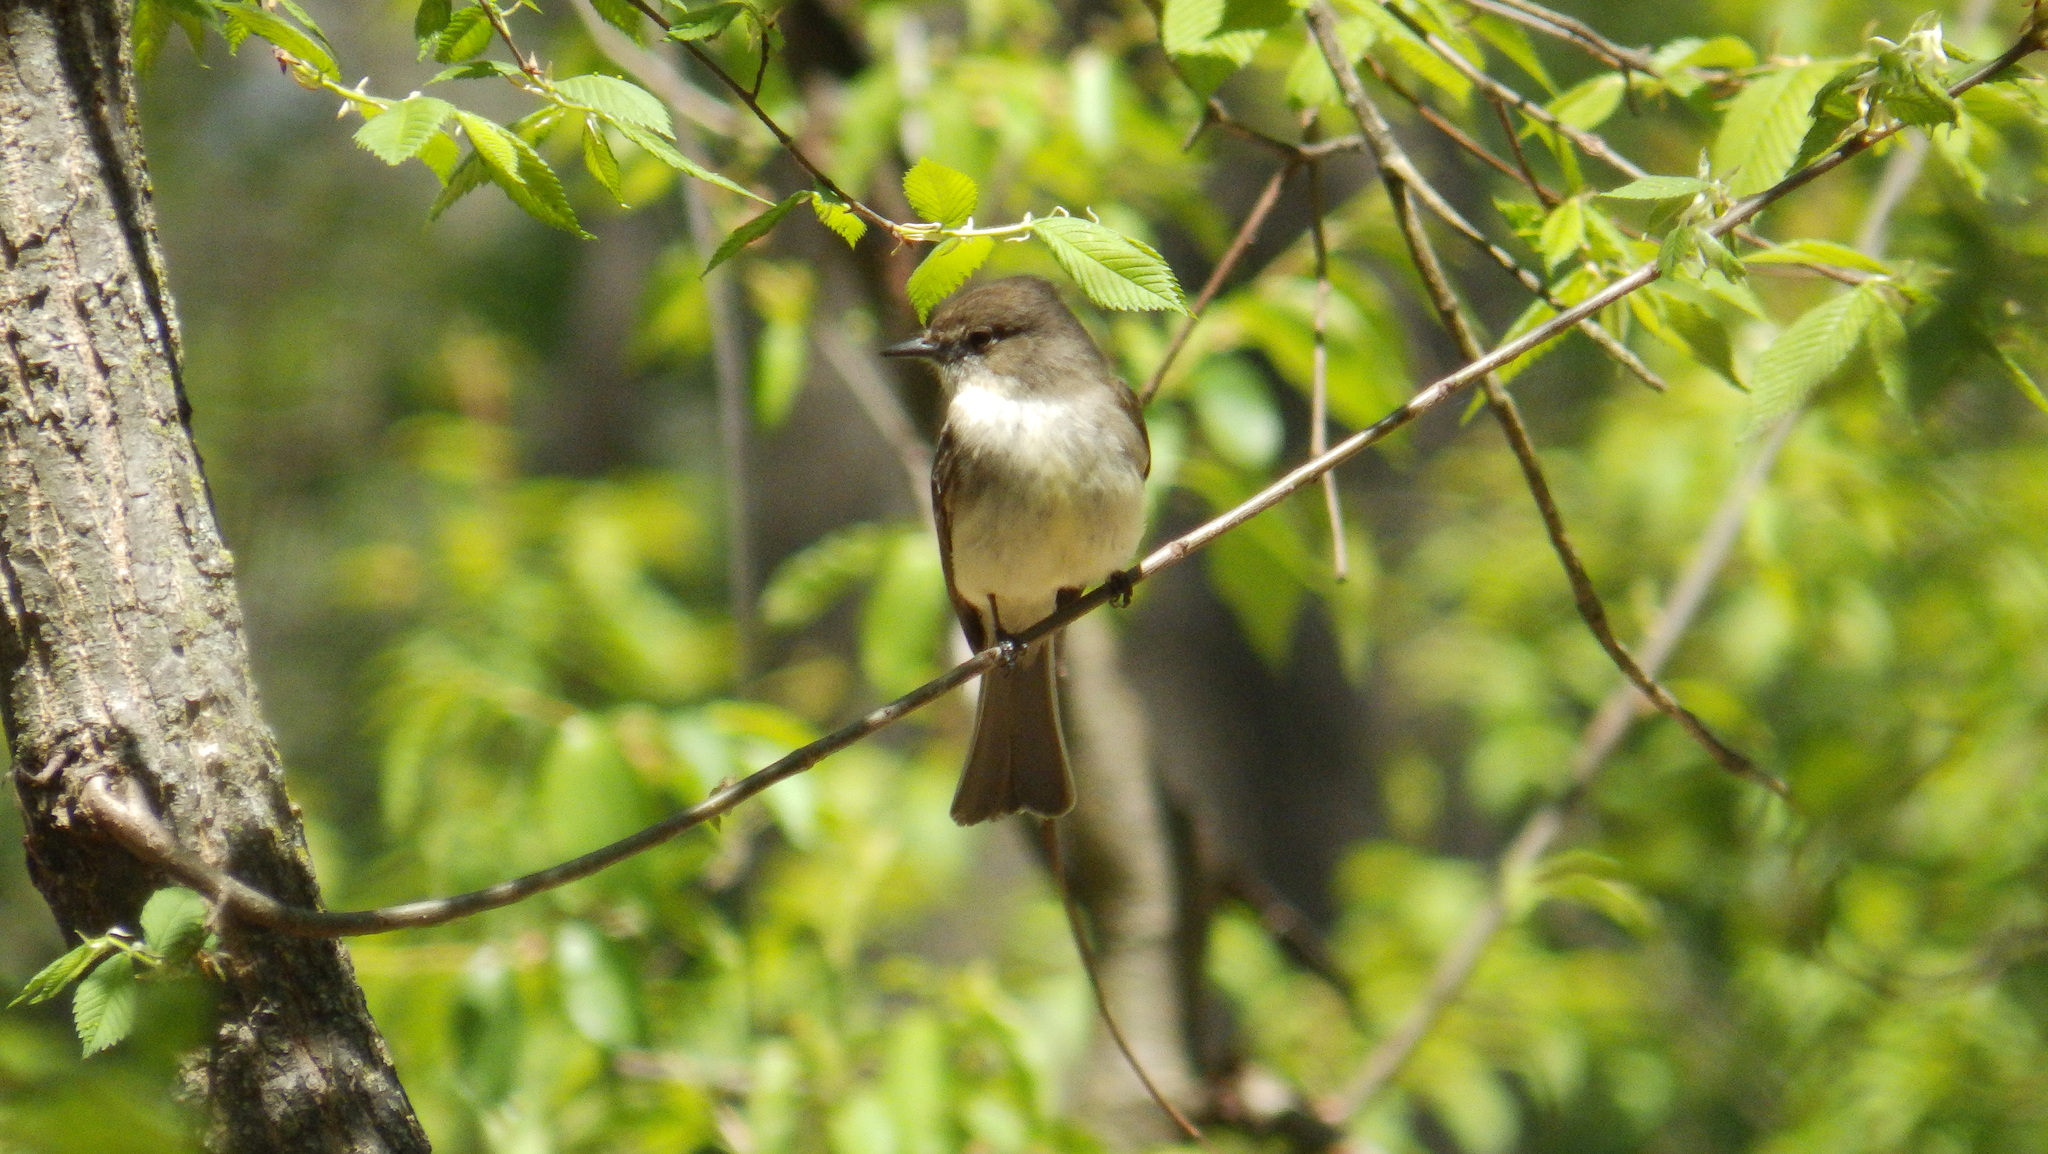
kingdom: Animalia
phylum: Chordata
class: Aves
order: Passeriformes
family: Tyrannidae
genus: Sayornis
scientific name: Sayornis phoebe
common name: Eastern phoebe
